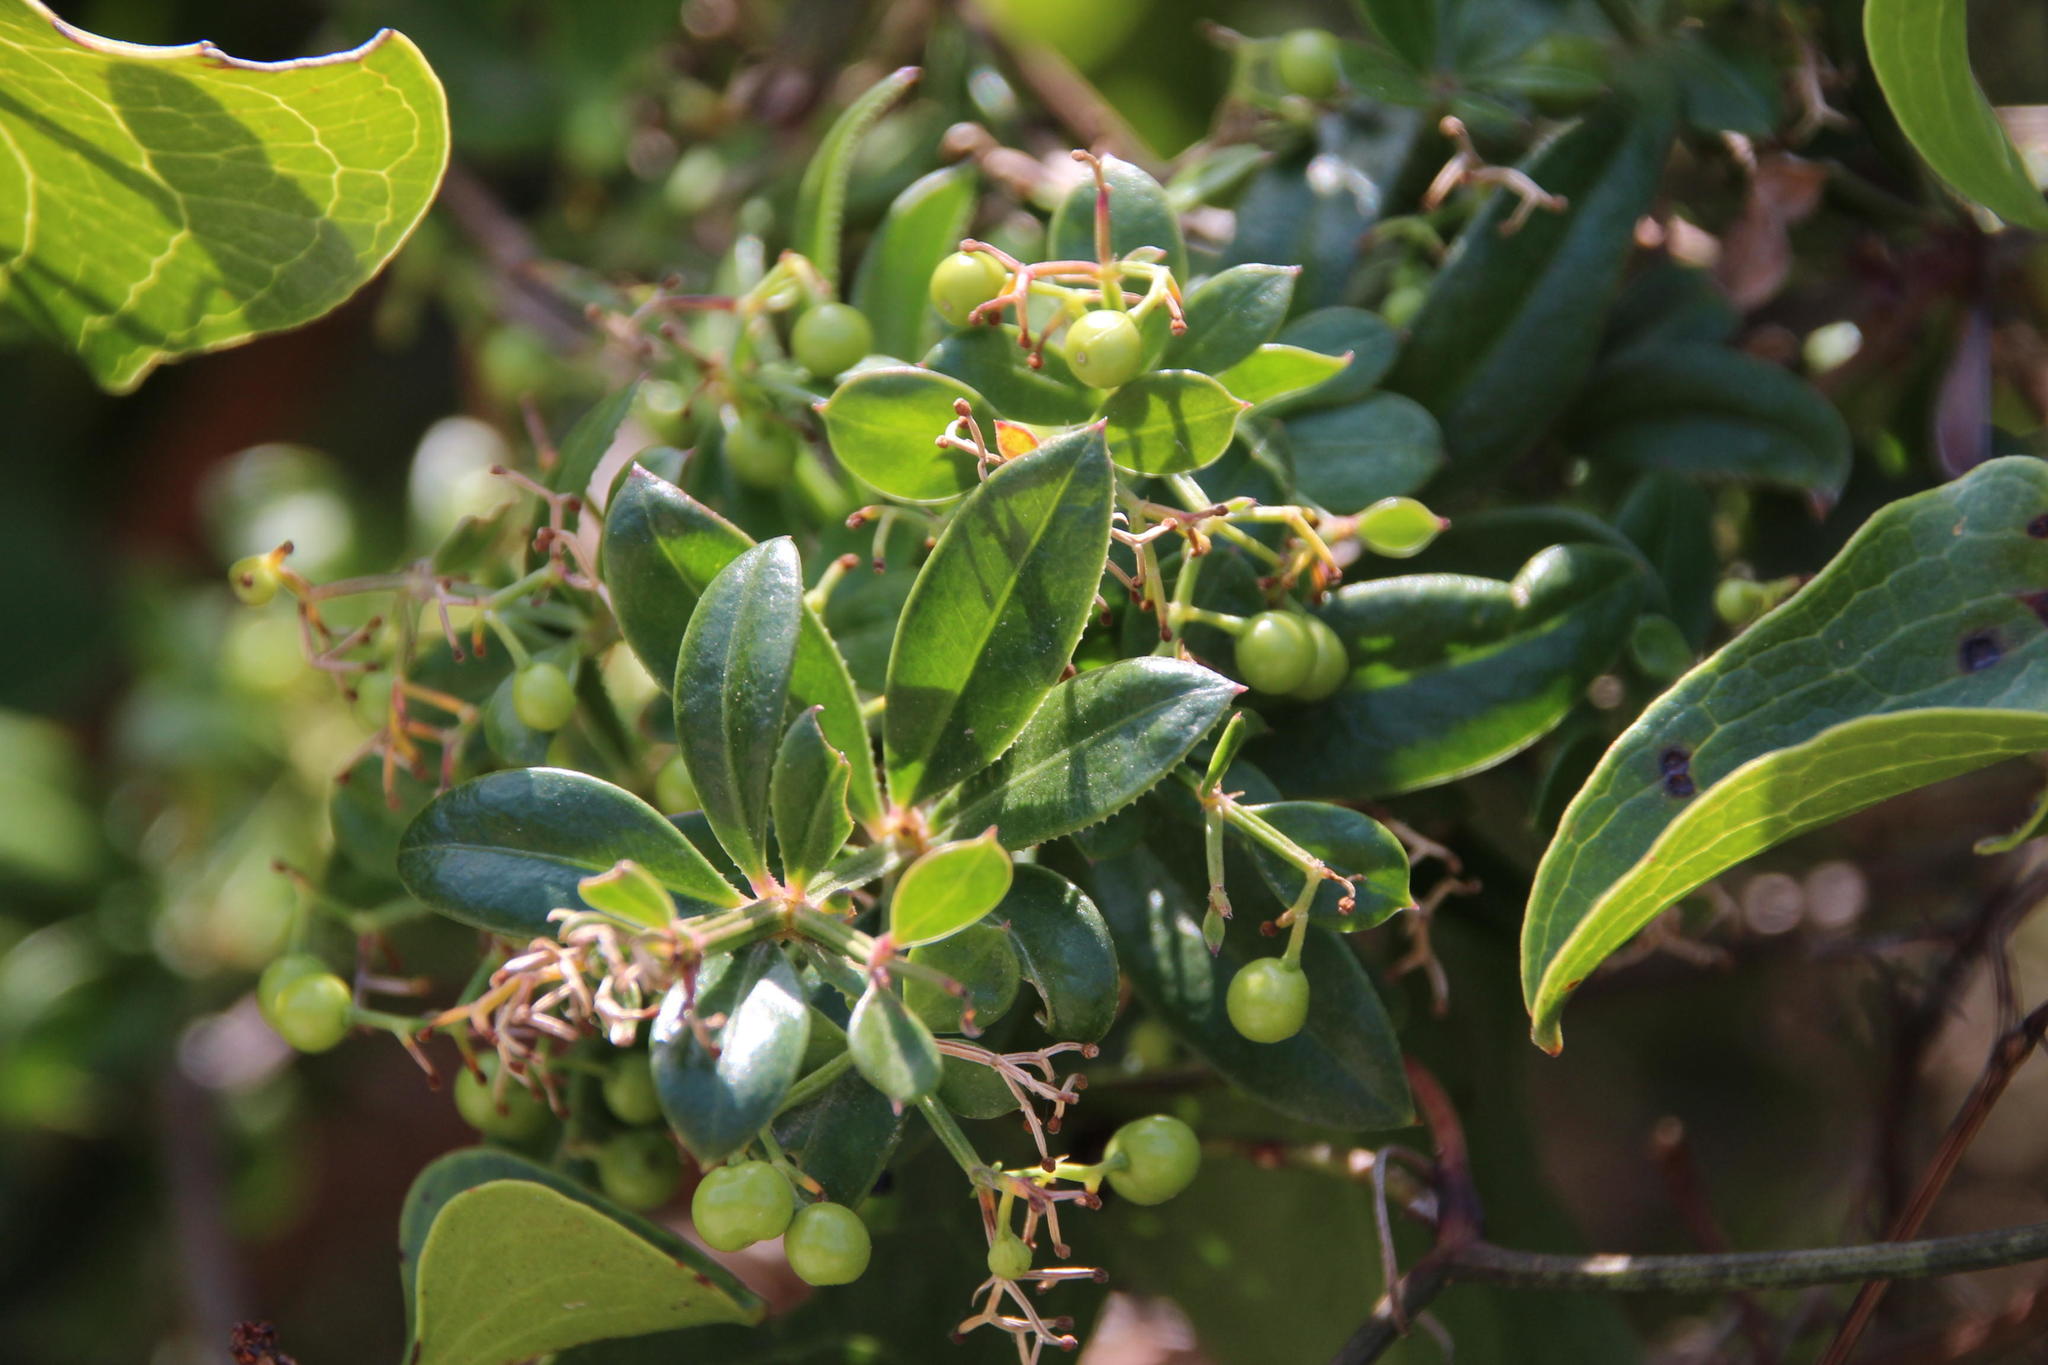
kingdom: Plantae
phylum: Tracheophyta
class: Magnoliopsida
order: Gentianales
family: Rubiaceae
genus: Rubia
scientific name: Rubia peregrina
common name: Wild madder
